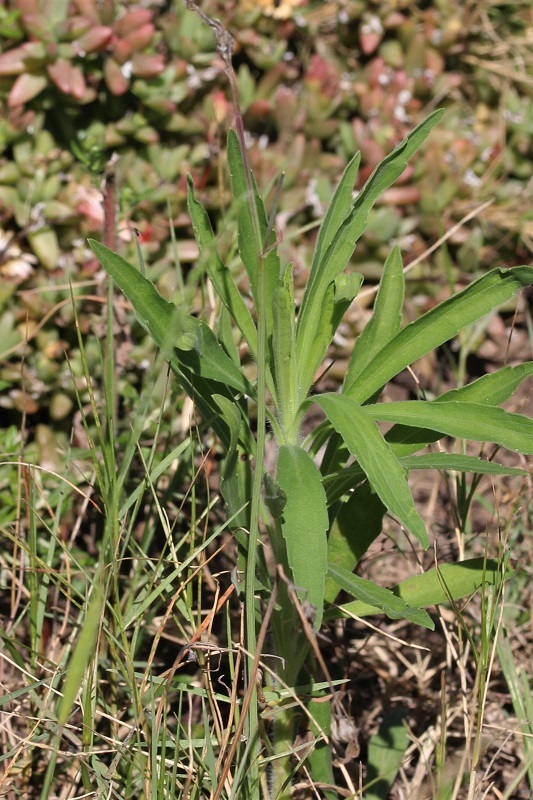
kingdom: Plantae
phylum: Tracheophyta
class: Magnoliopsida
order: Asterales
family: Asteraceae
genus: Erigeron
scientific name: Erigeron sumatrensis
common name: Daisy
